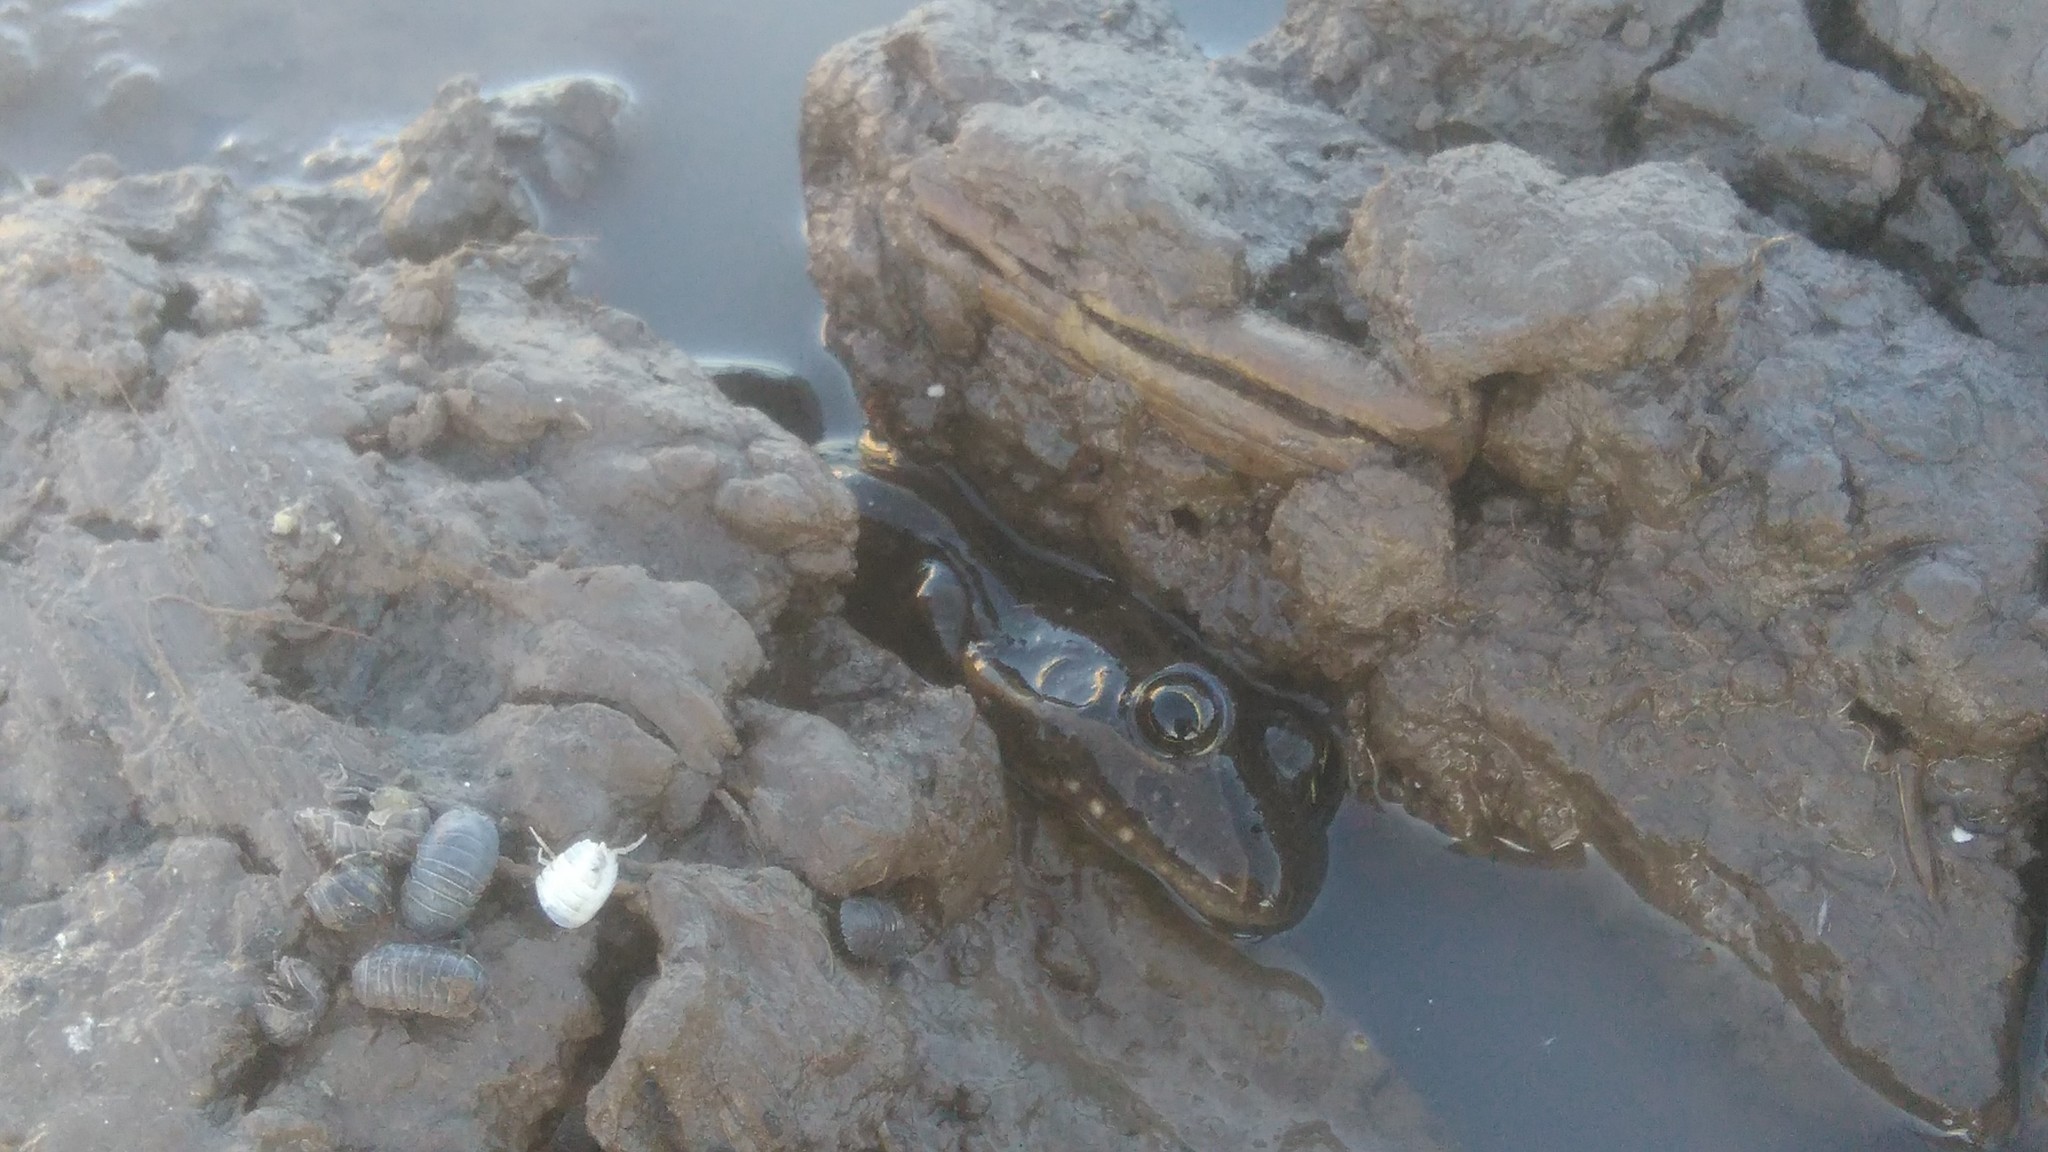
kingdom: Animalia
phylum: Chordata
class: Amphibia
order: Anura
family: Leptodactylidae
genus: Leptodactylus
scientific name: Leptodactylus luctator
